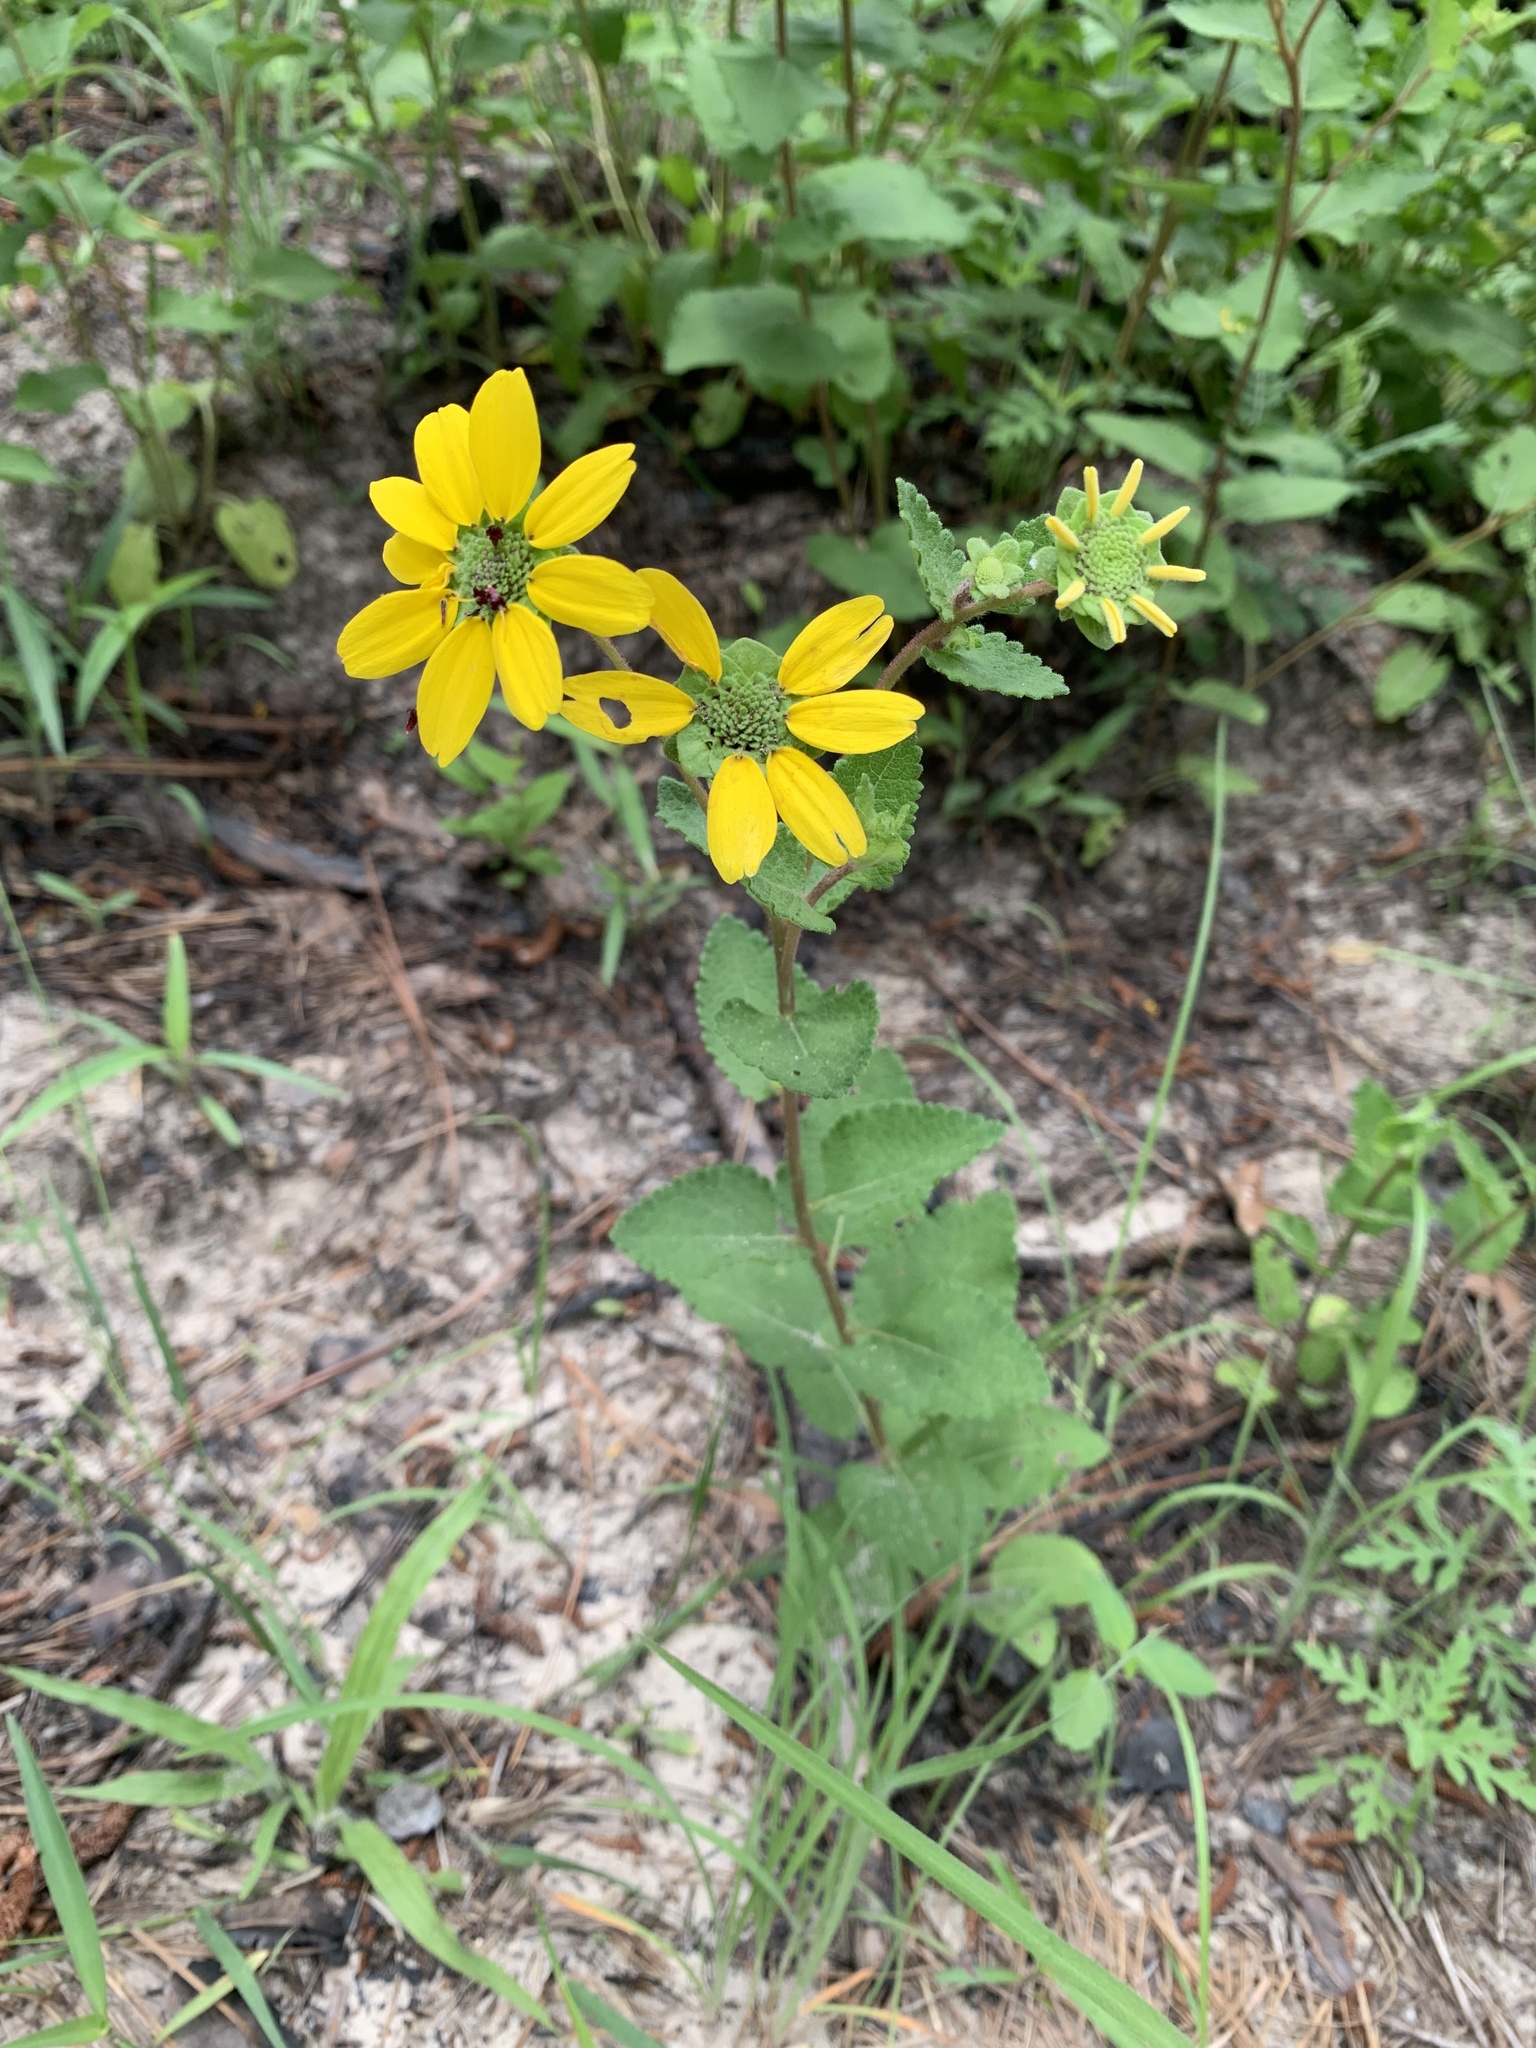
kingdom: Plantae
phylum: Tracheophyta
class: Magnoliopsida
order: Asterales
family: Asteraceae
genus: Berlandiera
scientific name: Berlandiera pumila
